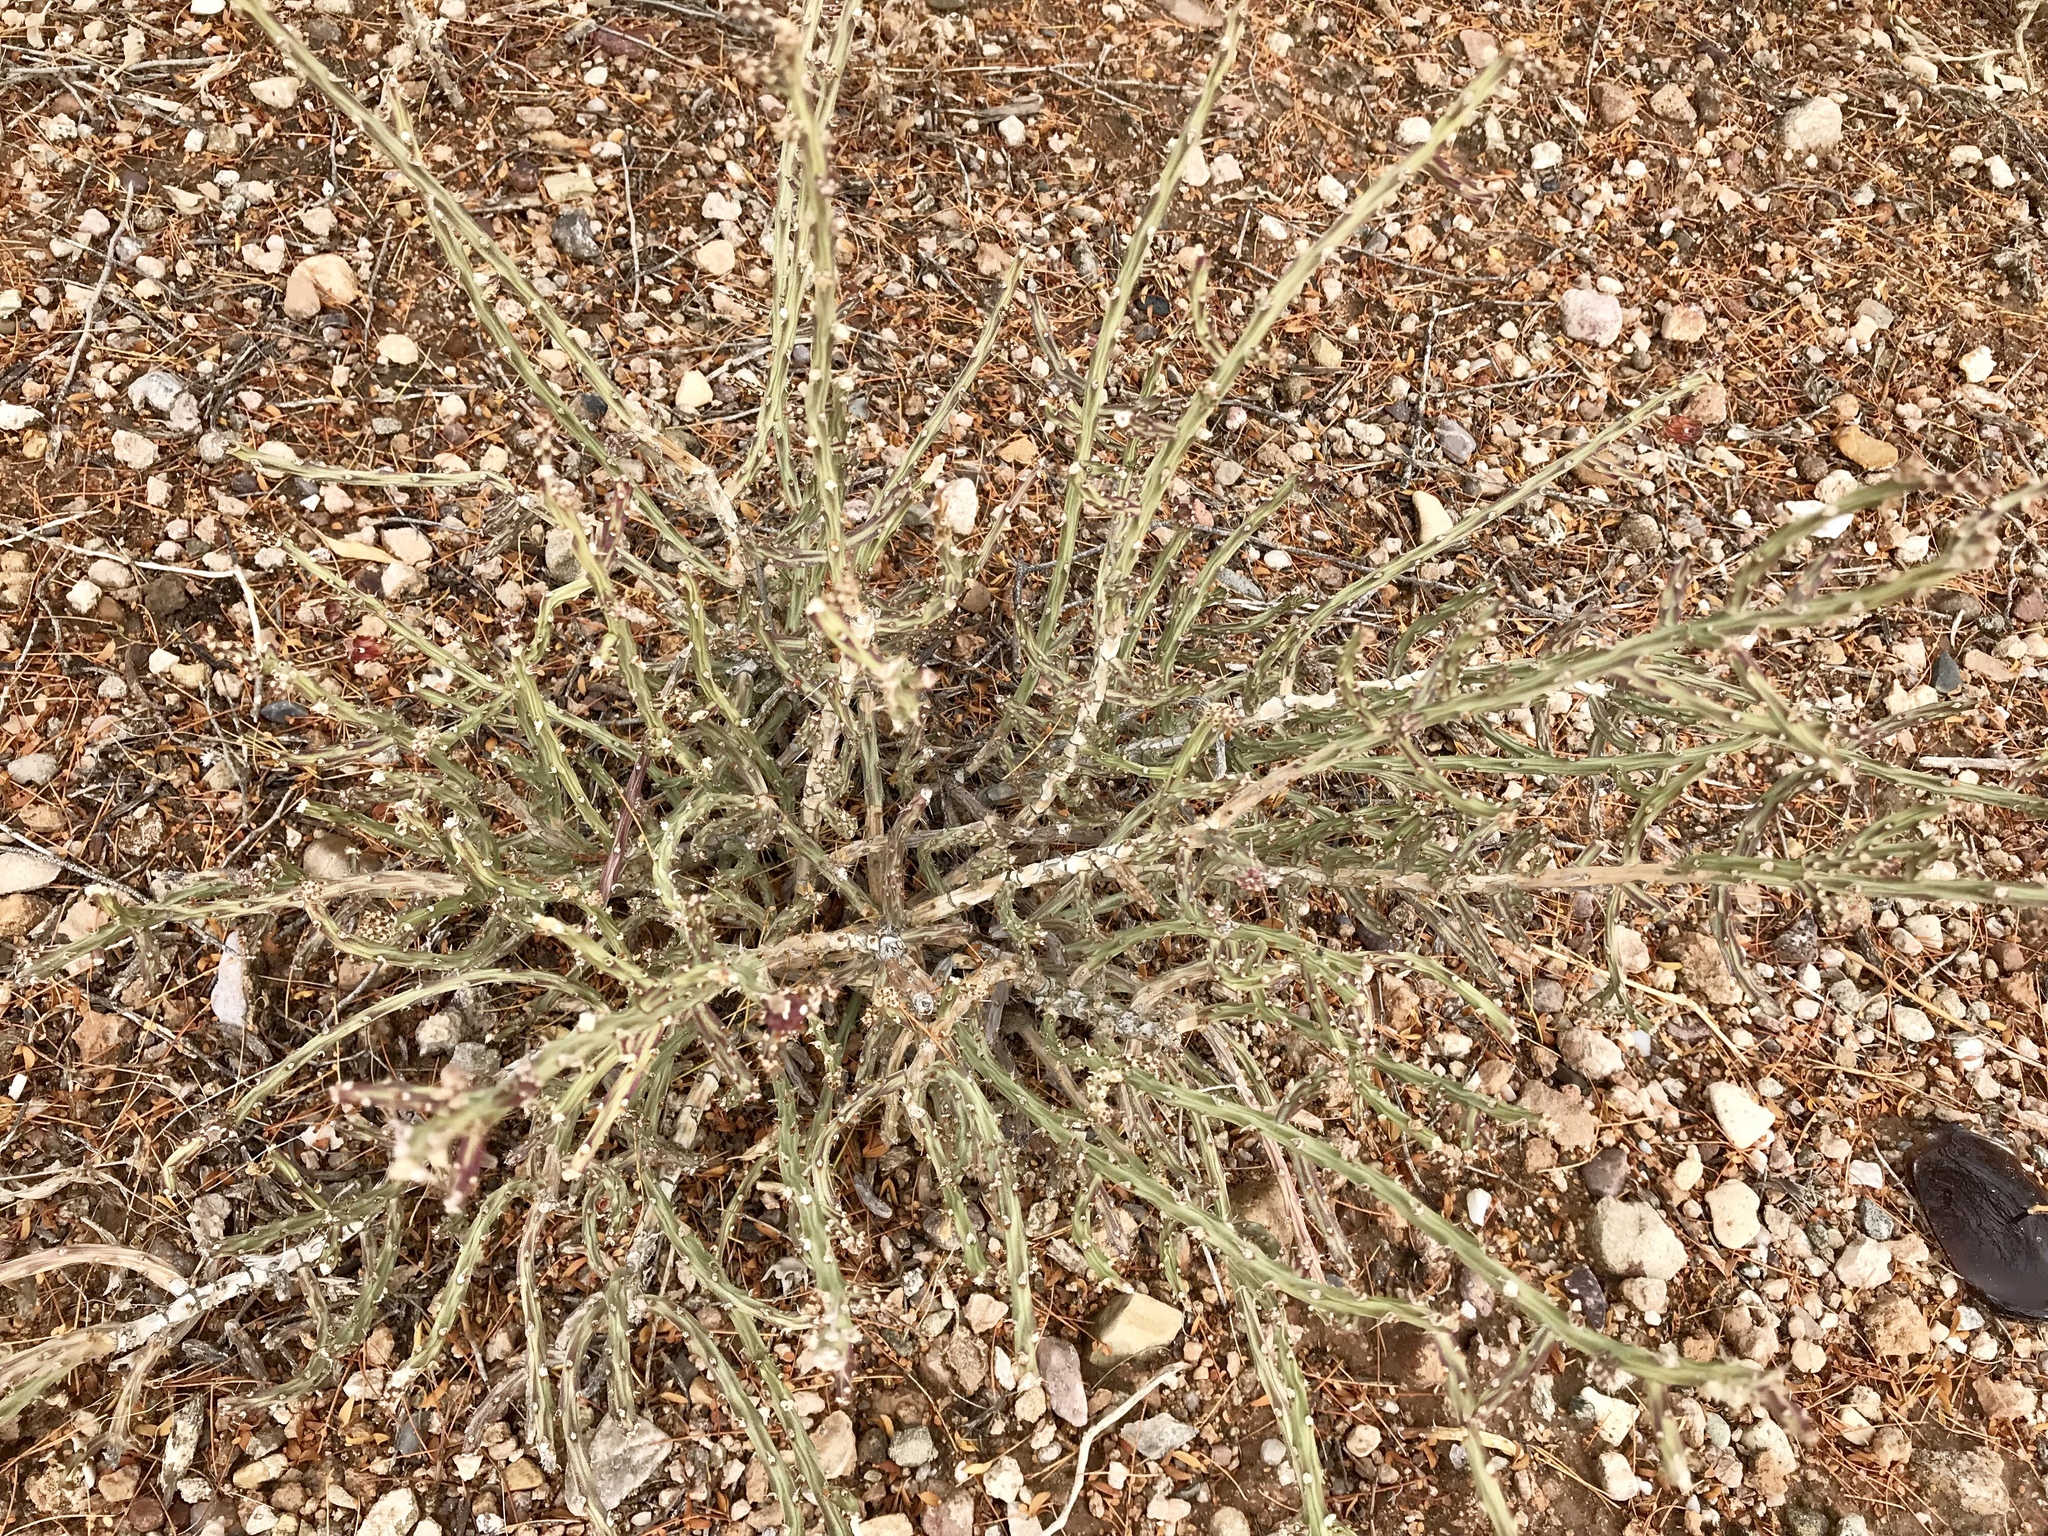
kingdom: Plantae
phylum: Tracheophyta
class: Magnoliopsida
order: Caryophyllales
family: Cactaceae
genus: Cylindropuntia
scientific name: Cylindropuntia leptocaulis
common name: Christmas cactus
